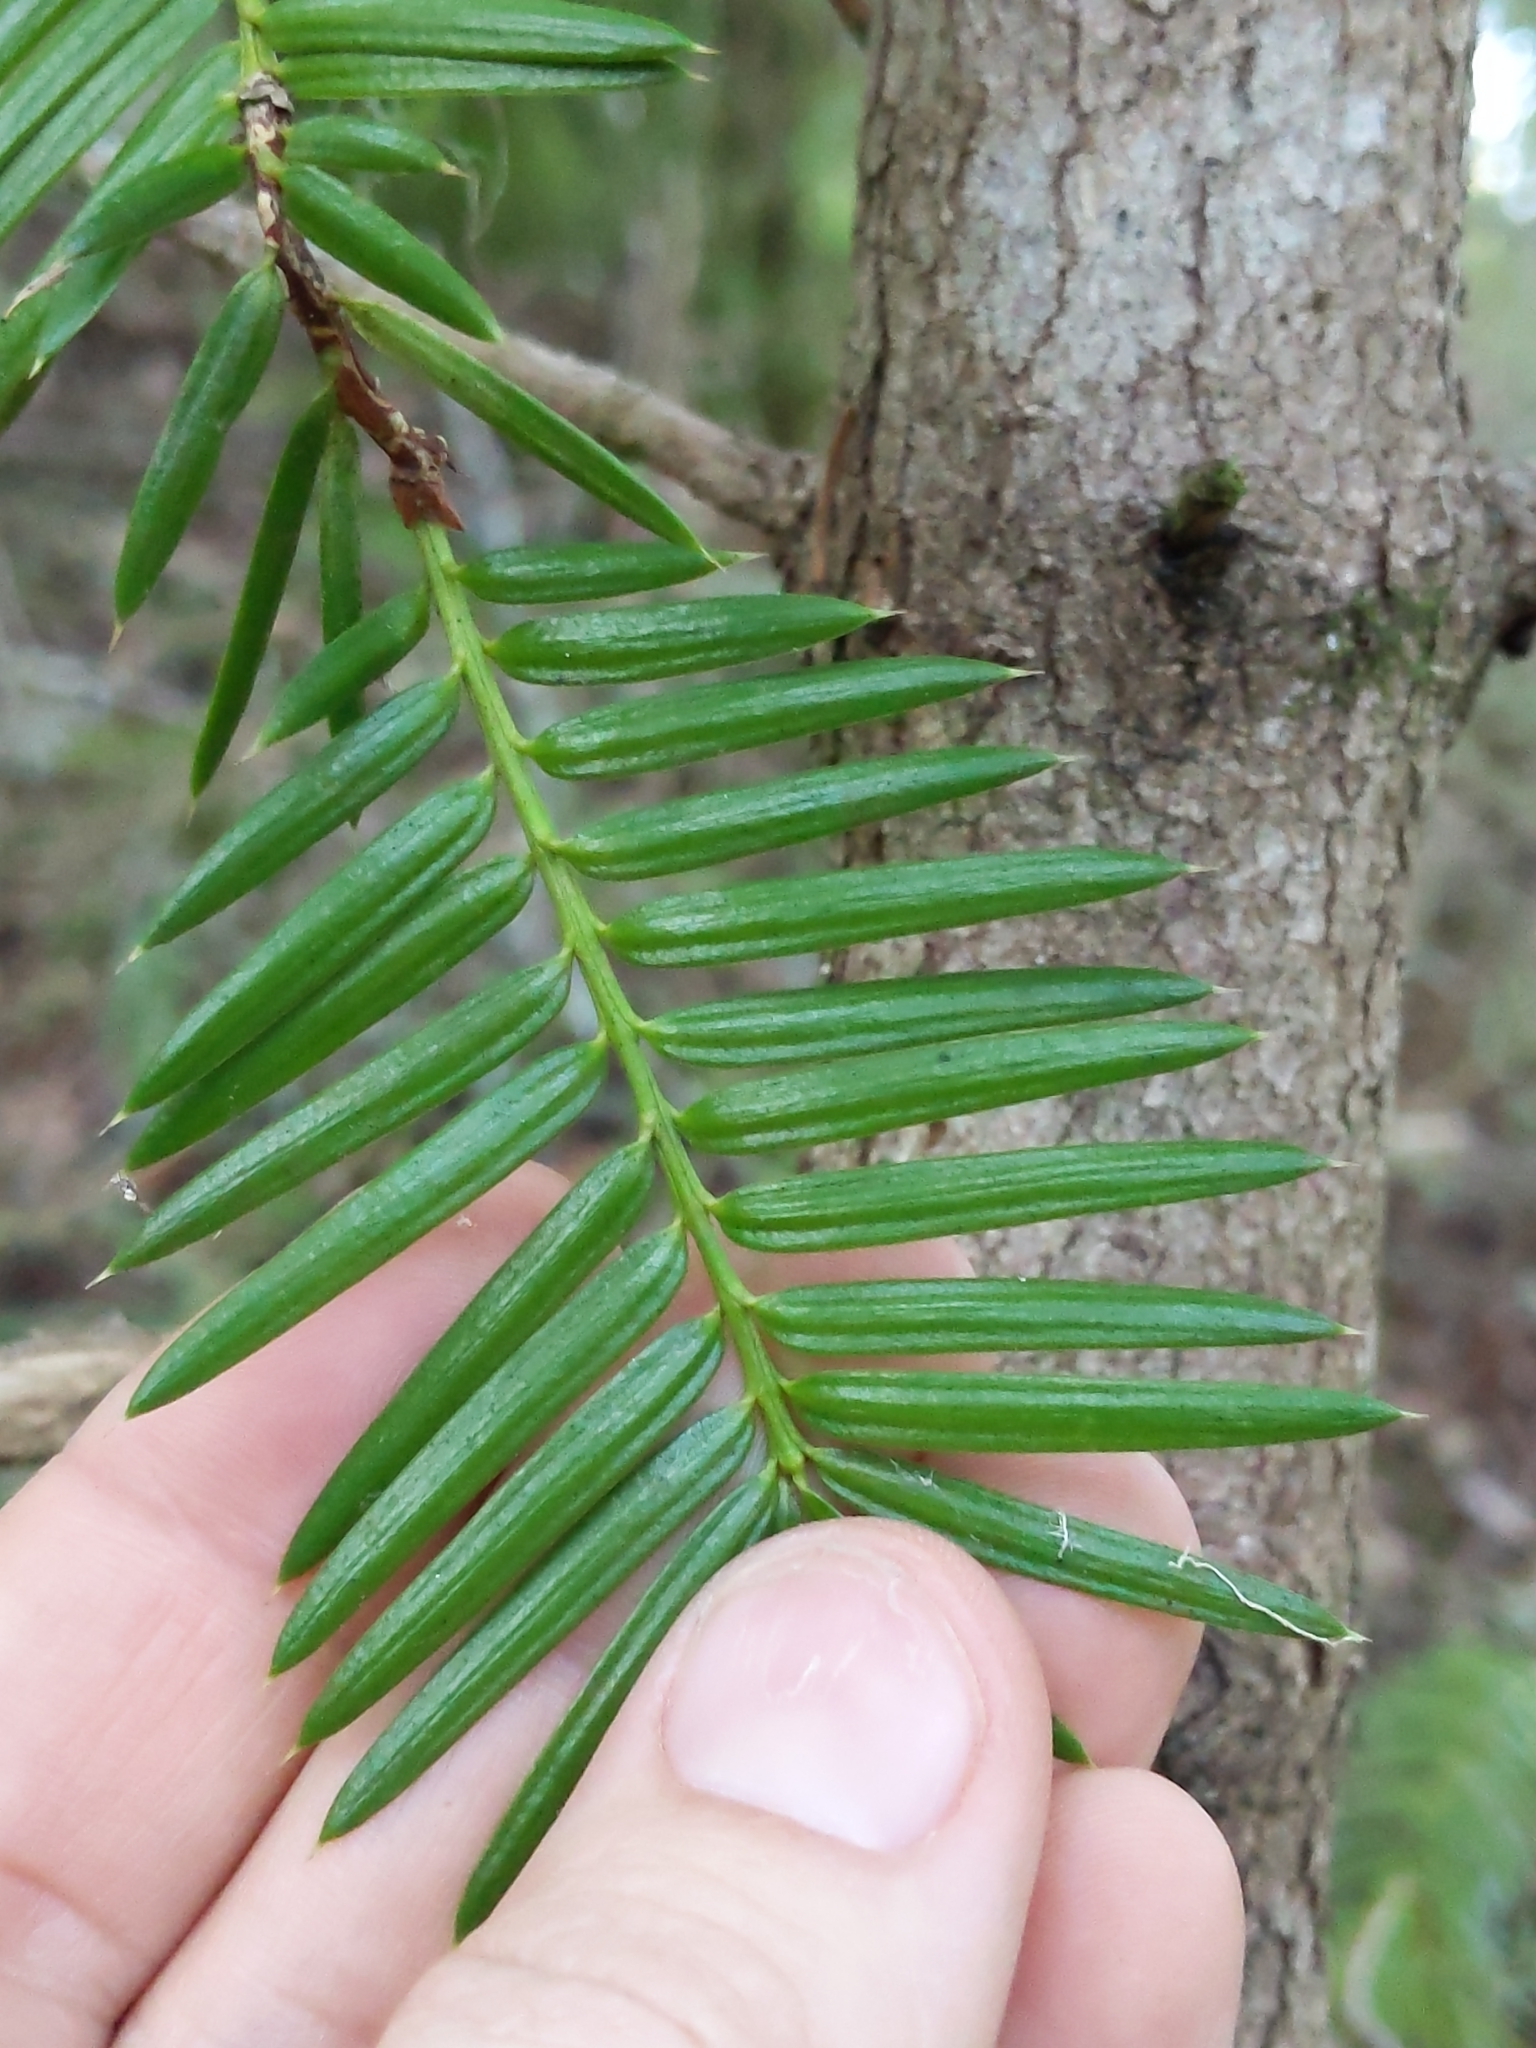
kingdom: Plantae
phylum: Tracheophyta
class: Pinopsida
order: Pinales
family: Taxaceae
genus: Torreya
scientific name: Torreya californica
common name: California torreya
